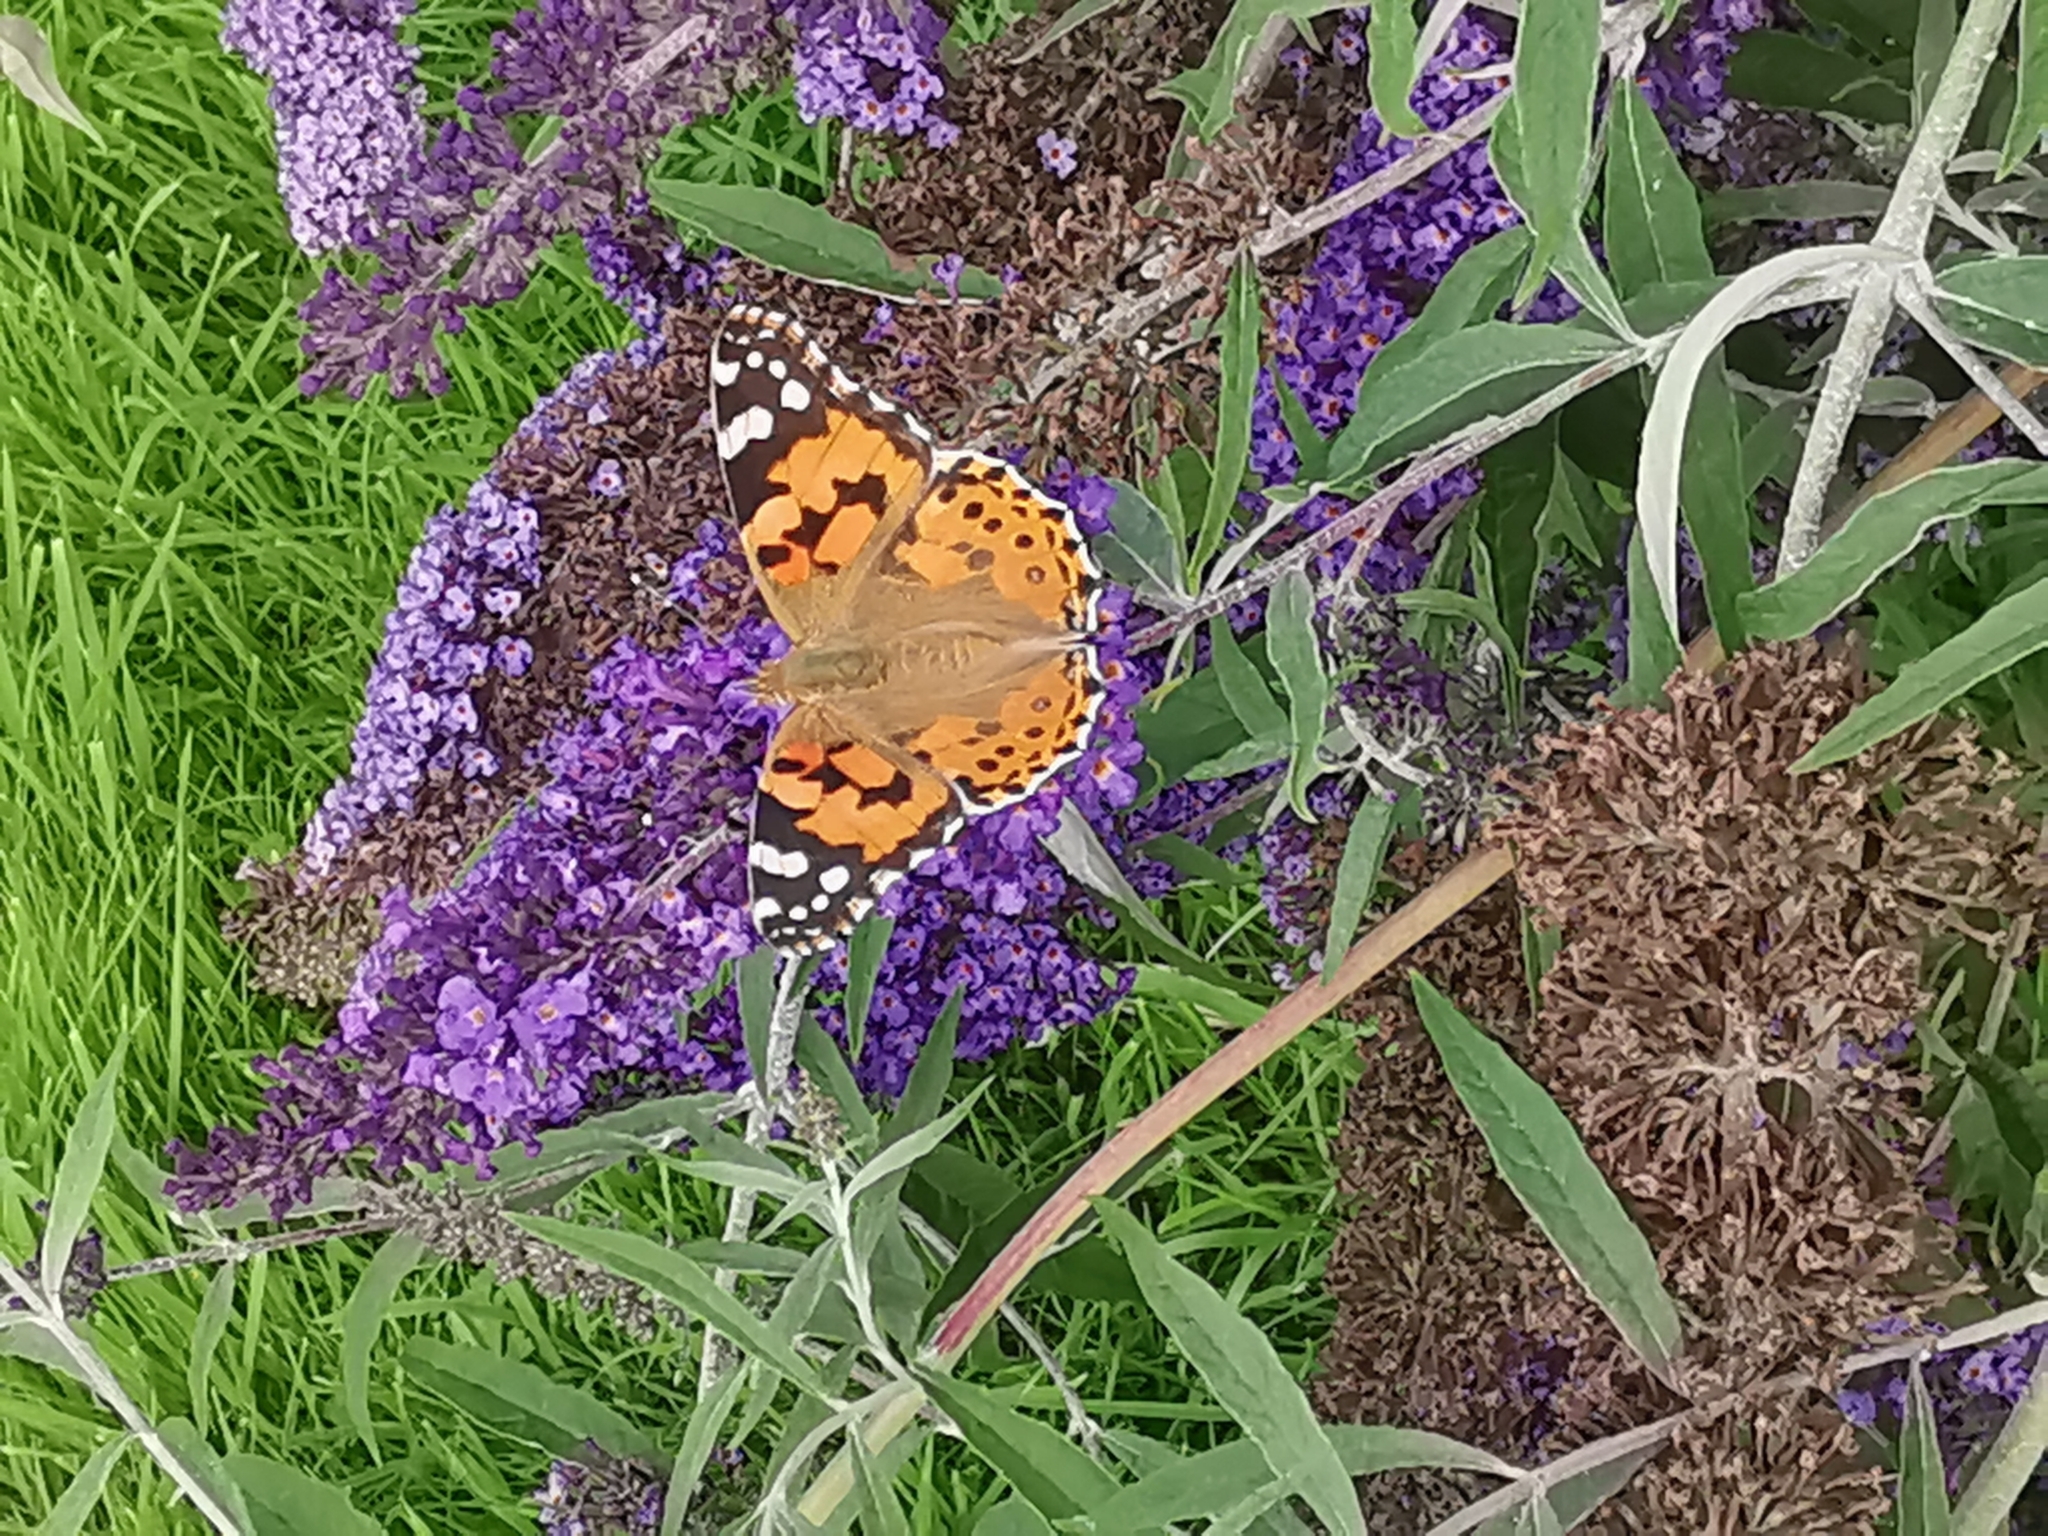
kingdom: Animalia
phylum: Arthropoda
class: Insecta
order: Lepidoptera
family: Nymphalidae
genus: Vanessa
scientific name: Vanessa cardui
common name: Painted lady
